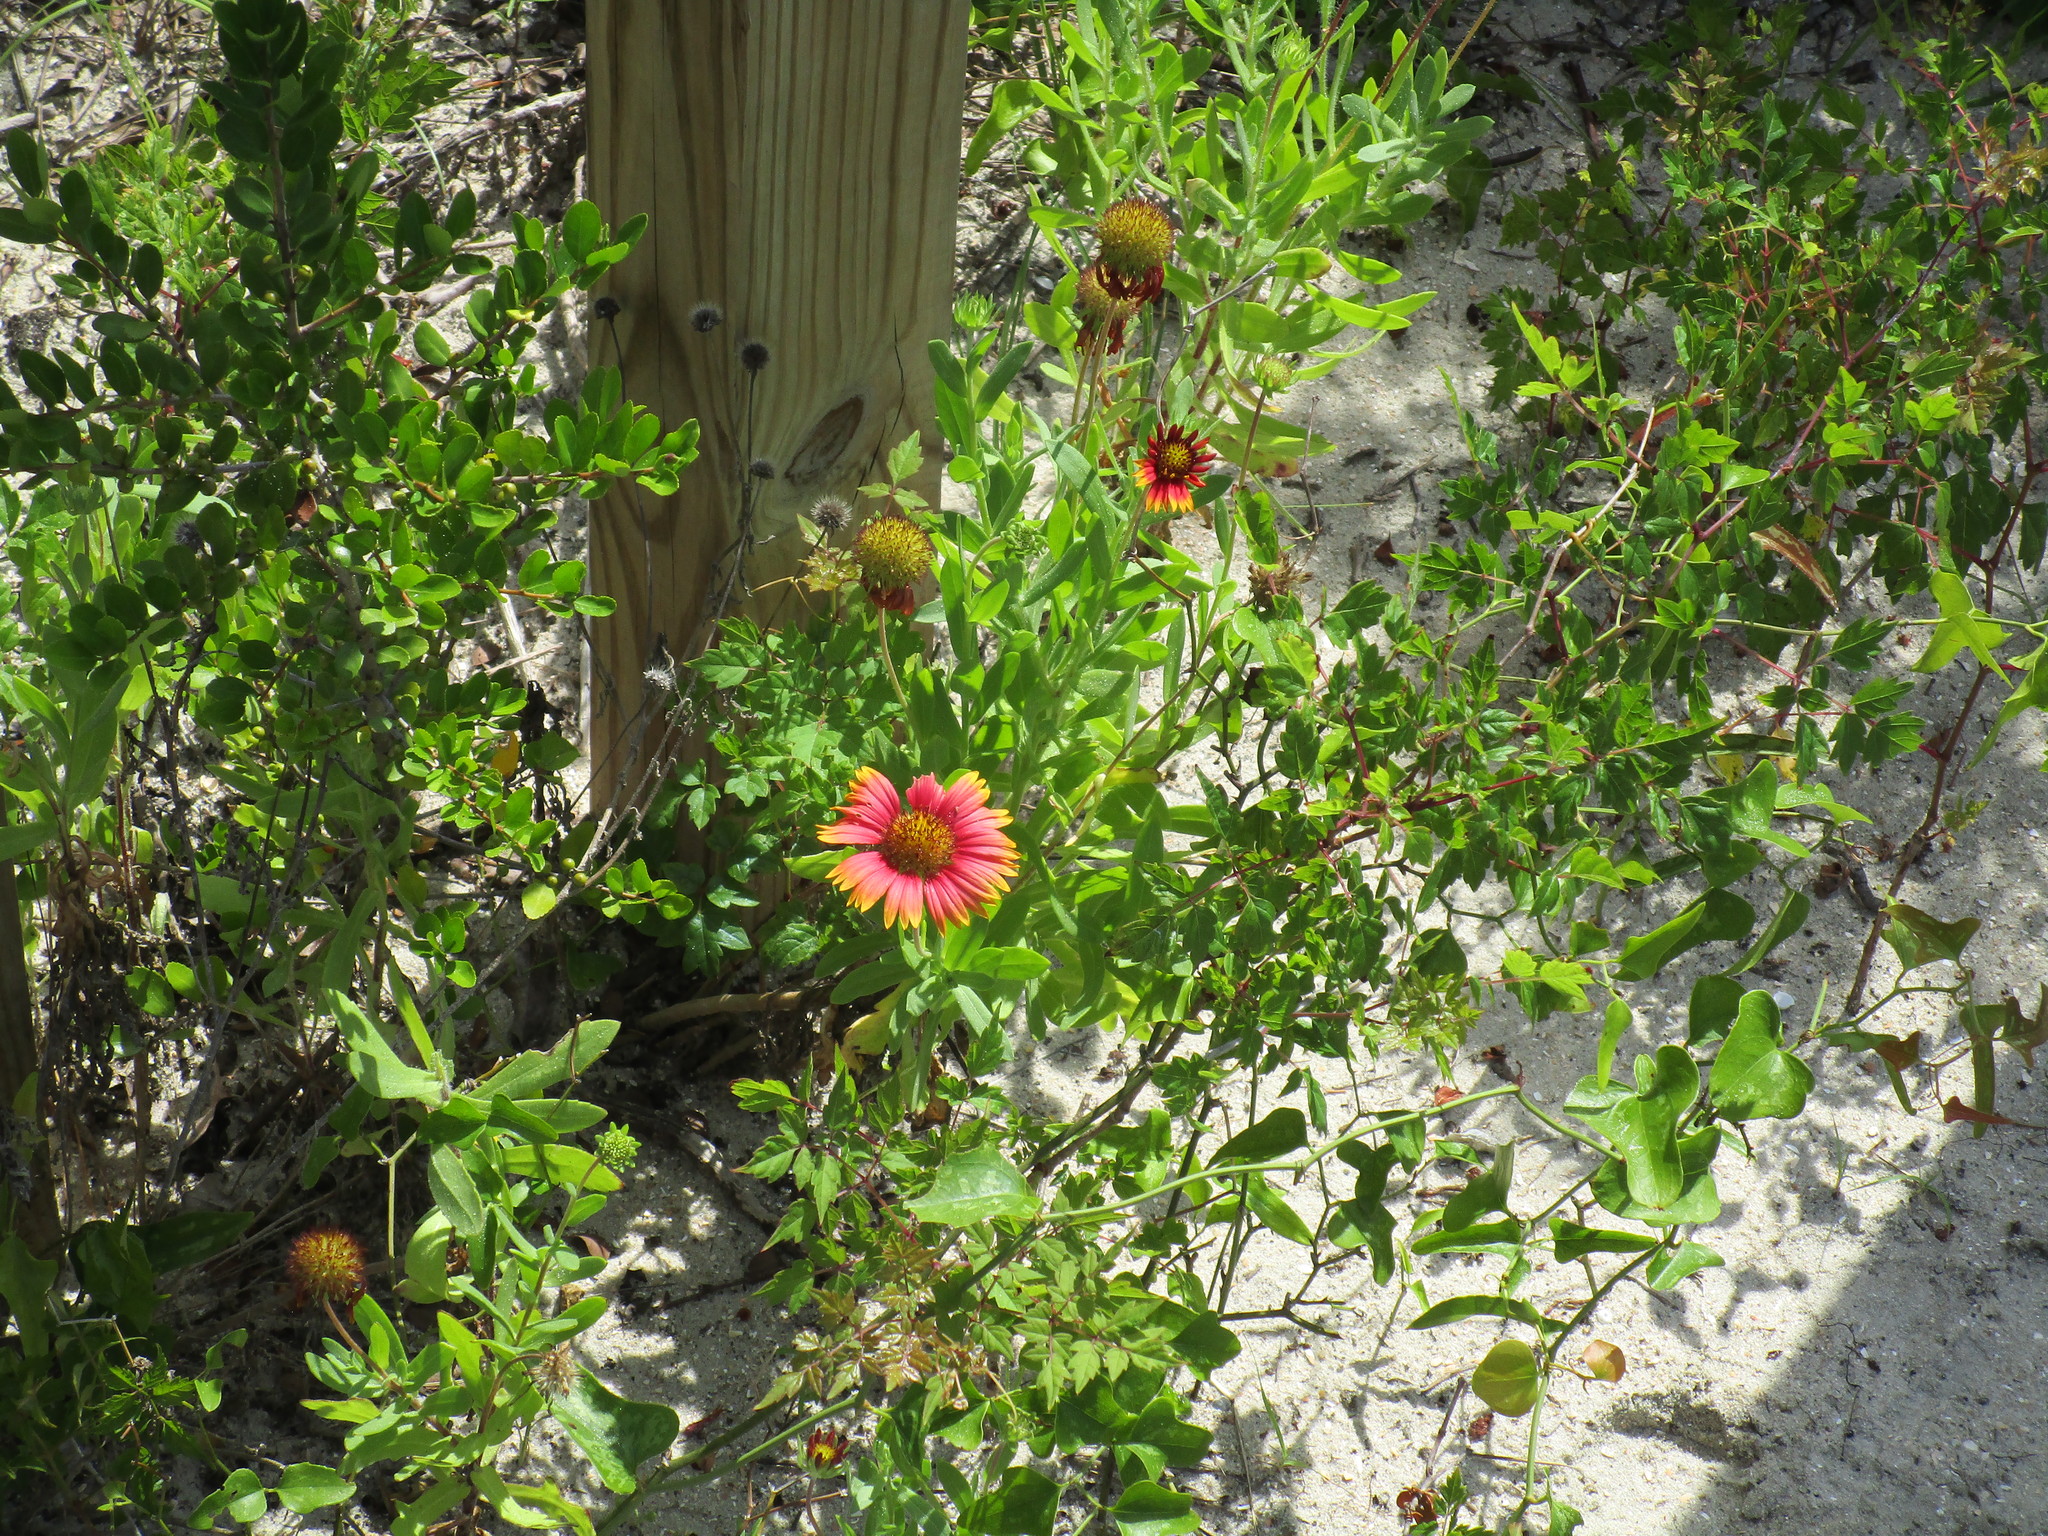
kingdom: Plantae
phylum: Tracheophyta
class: Magnoliopsida
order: Asterales
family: Asteraceae
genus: Gaillardia
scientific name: Gaillardia pulchella
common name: Firewheel
